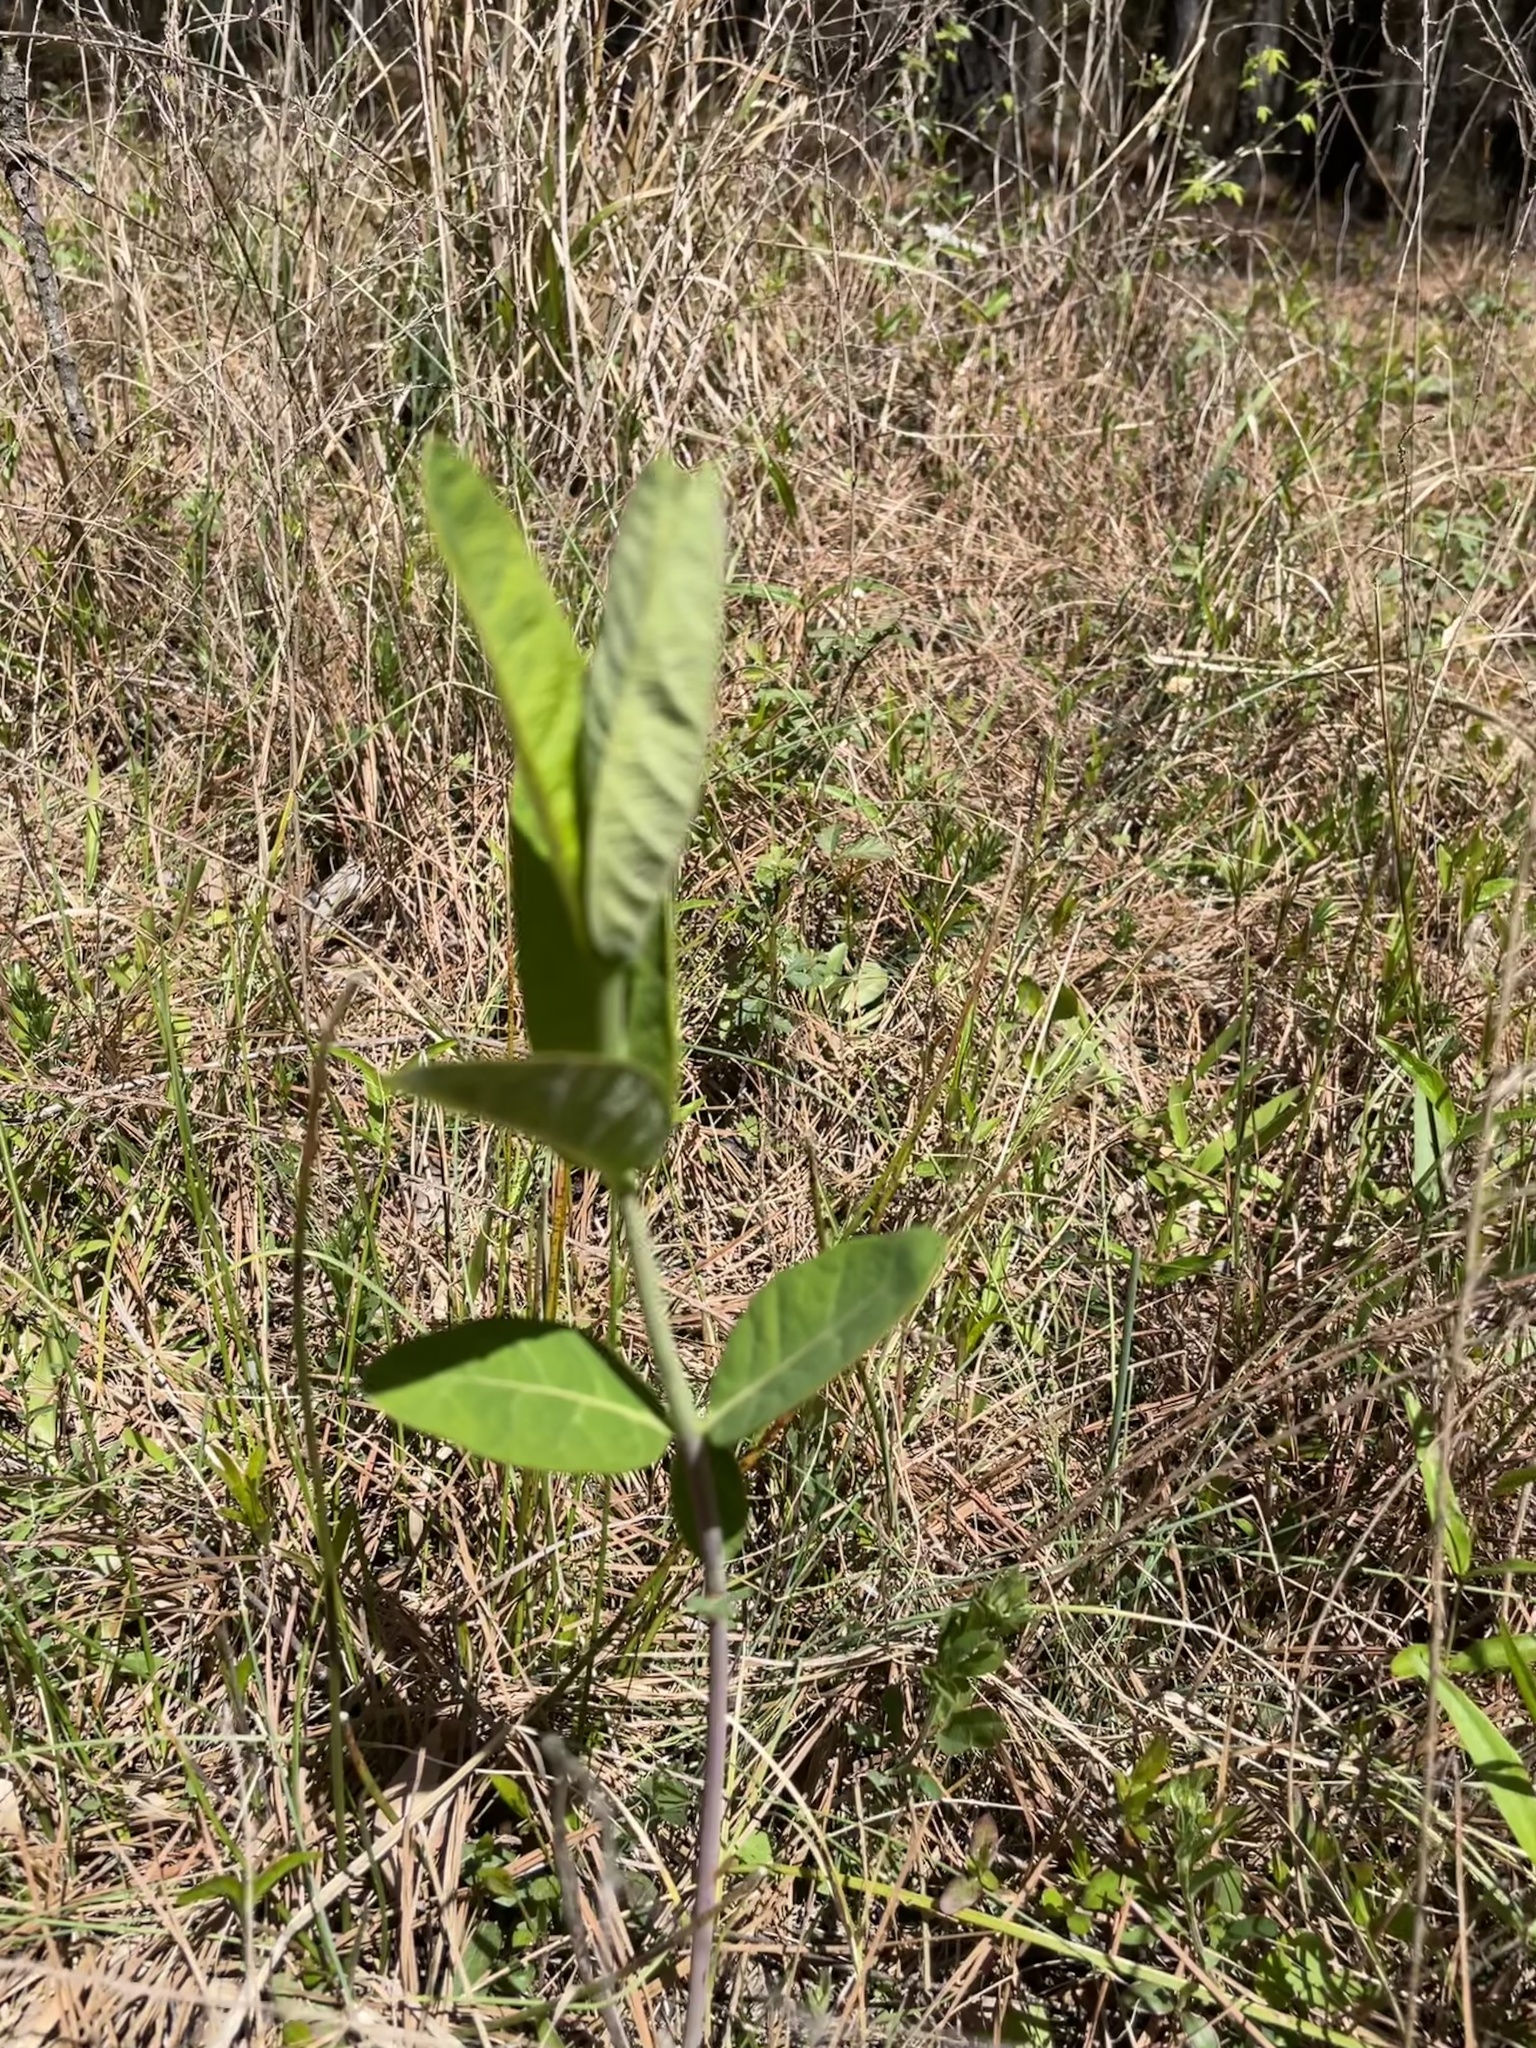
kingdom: Plantae
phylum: Tracheophyta
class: Magnoliopsida
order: Gentianales
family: Apocynaceae
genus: Apocynum
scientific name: Apocynum cannabinum
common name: Hemp dogbane
